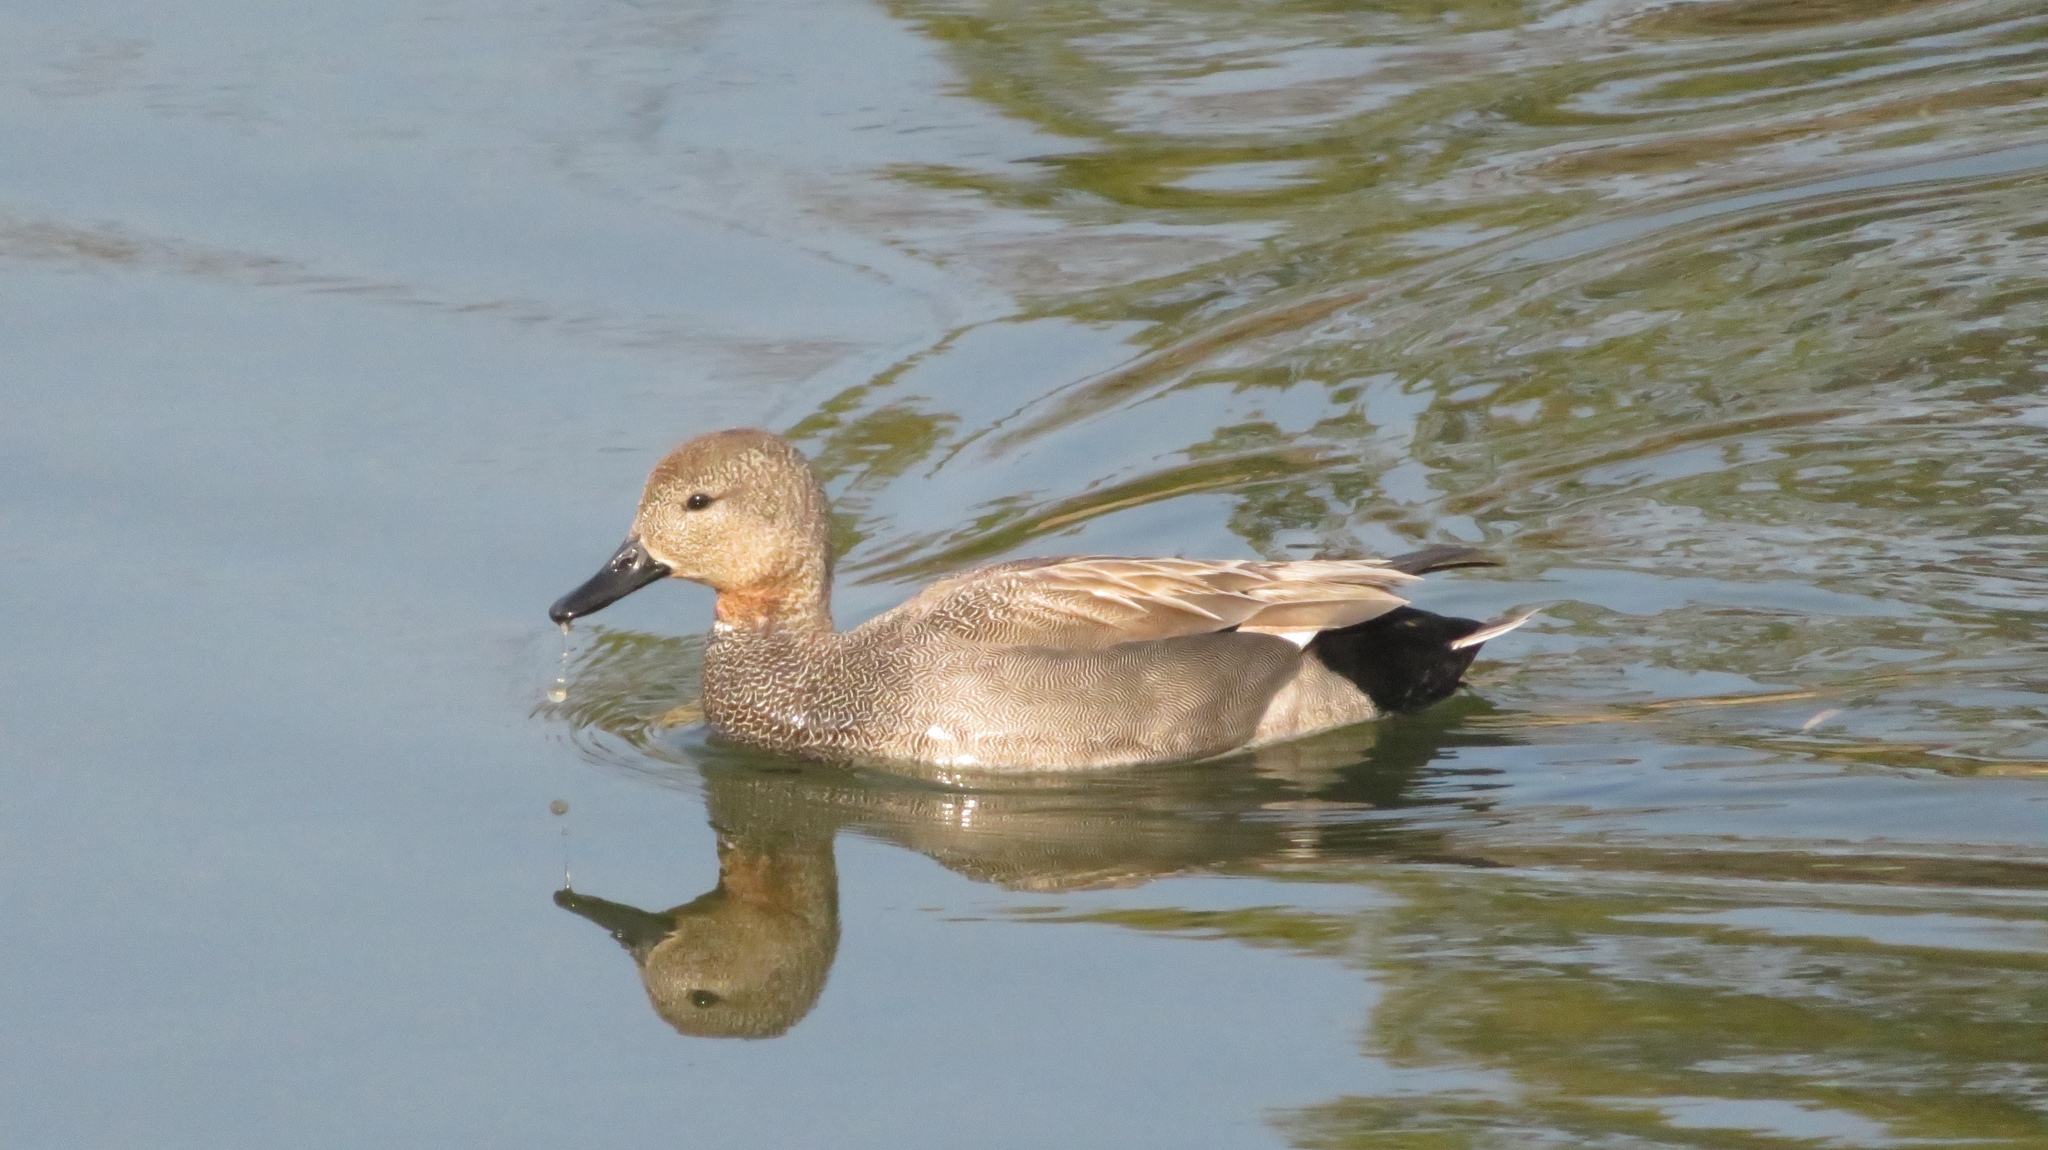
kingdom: Animalia
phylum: Chordata
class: Aves
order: Anseriformes
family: Anatidae
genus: Mareca
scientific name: Mareca strepera
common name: Gadwall
